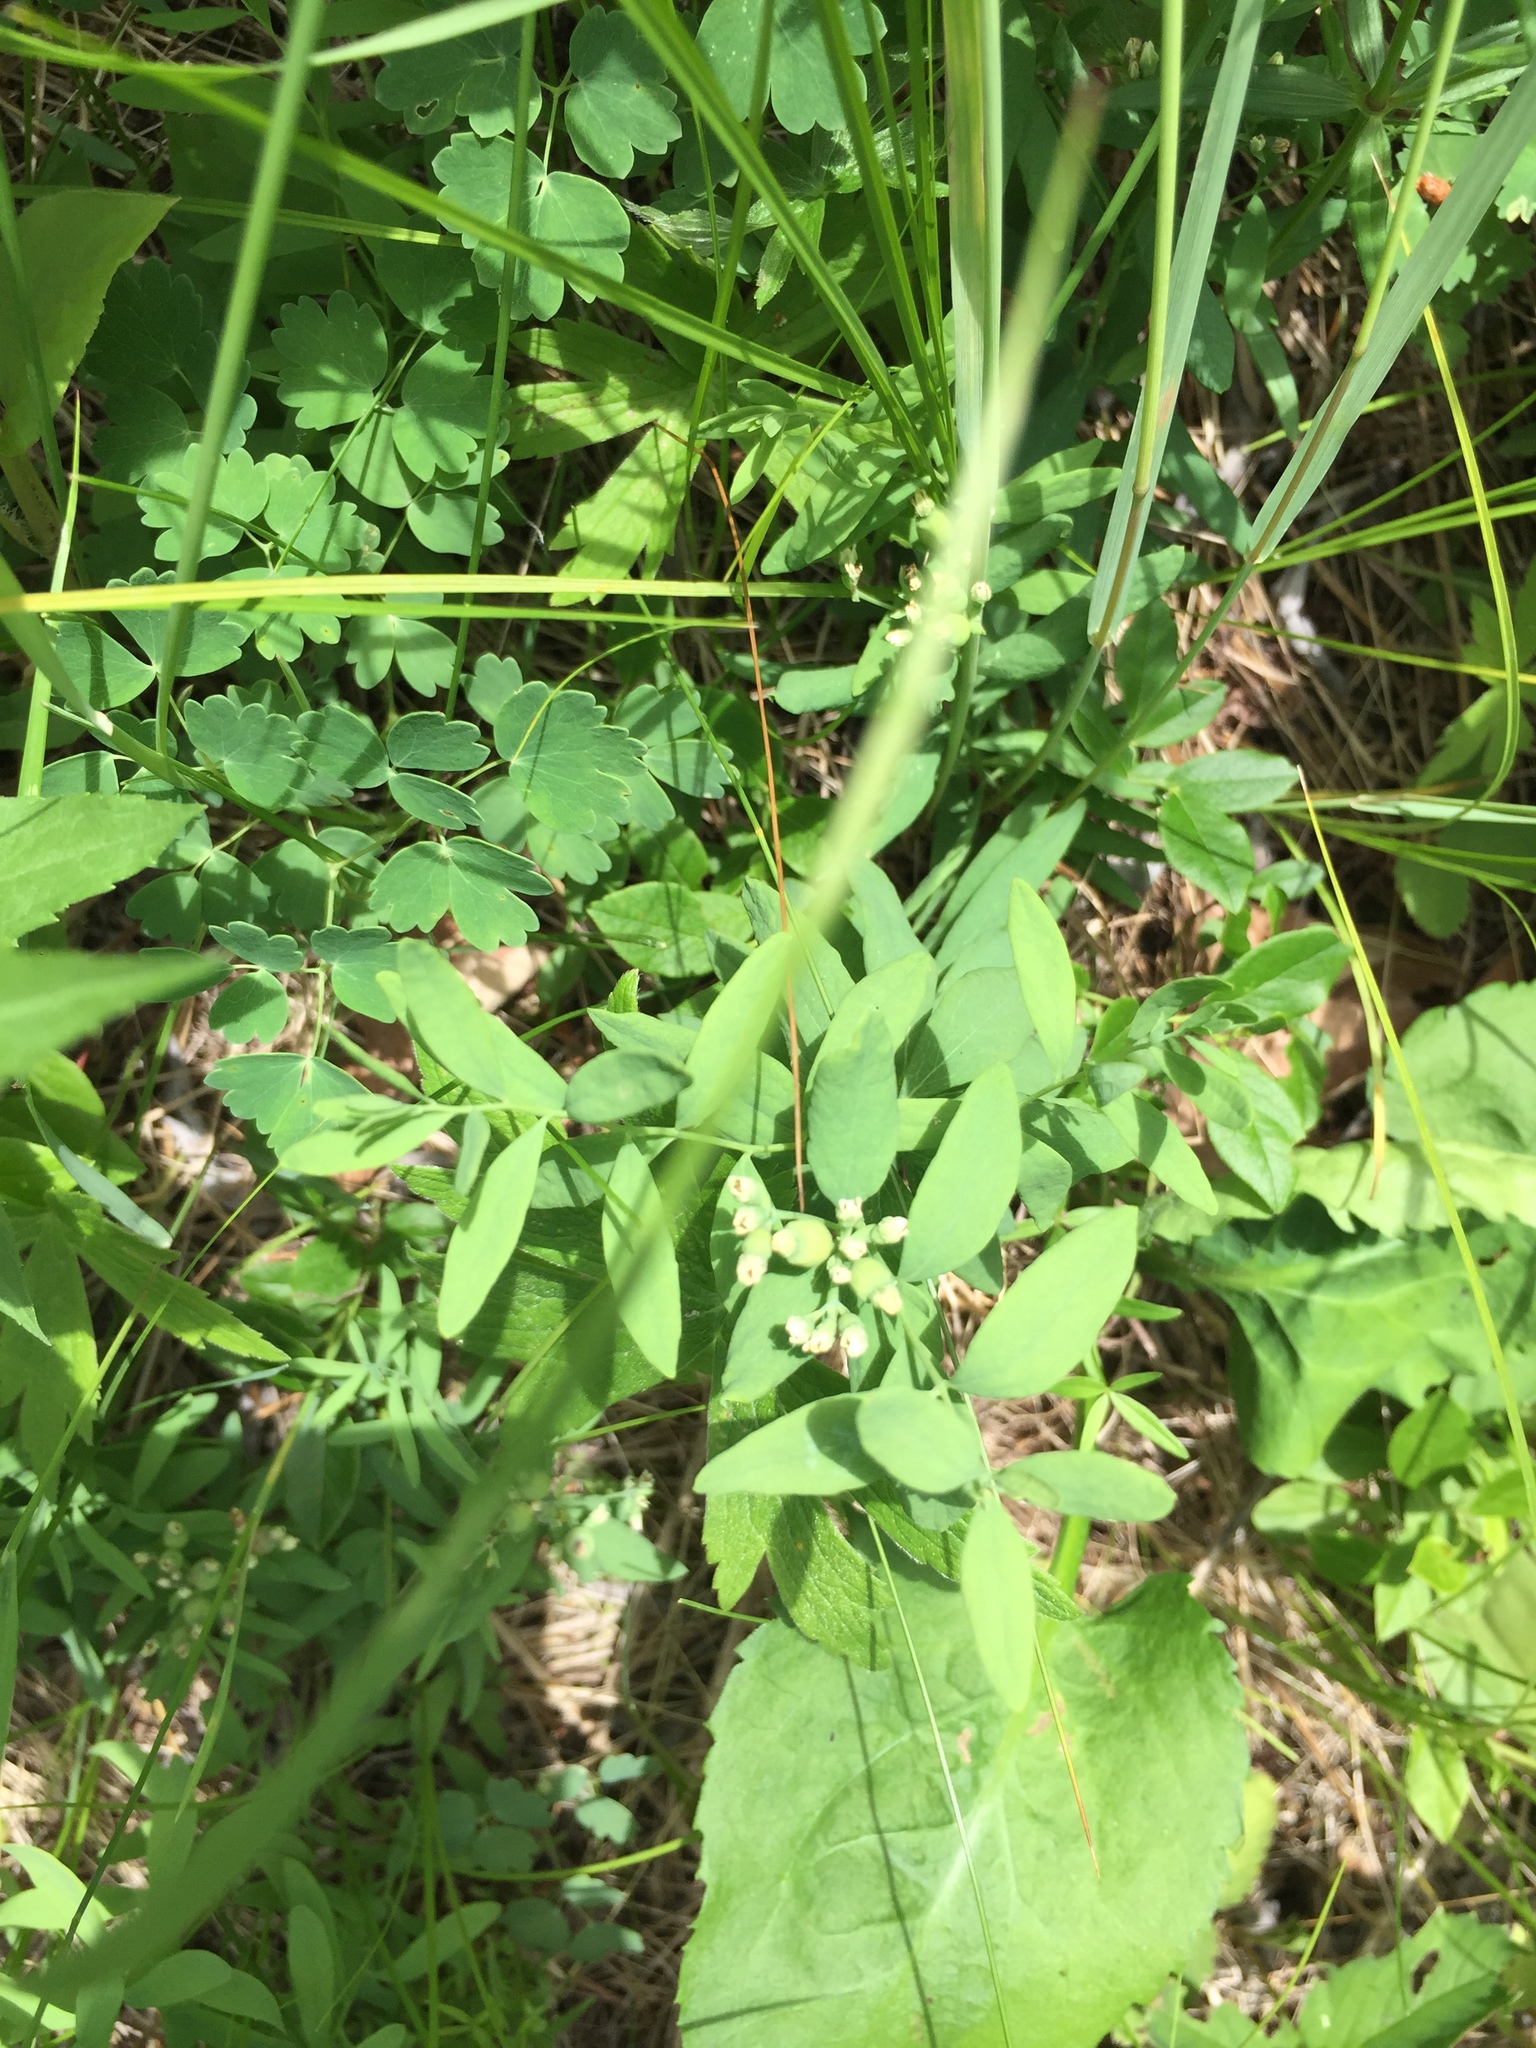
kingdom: Plantae
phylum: Tracheophyta
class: Magnoliopsida
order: Santalales
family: Comandraceae
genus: Comandra
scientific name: Comandra umbellata
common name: Bastard toadflax
